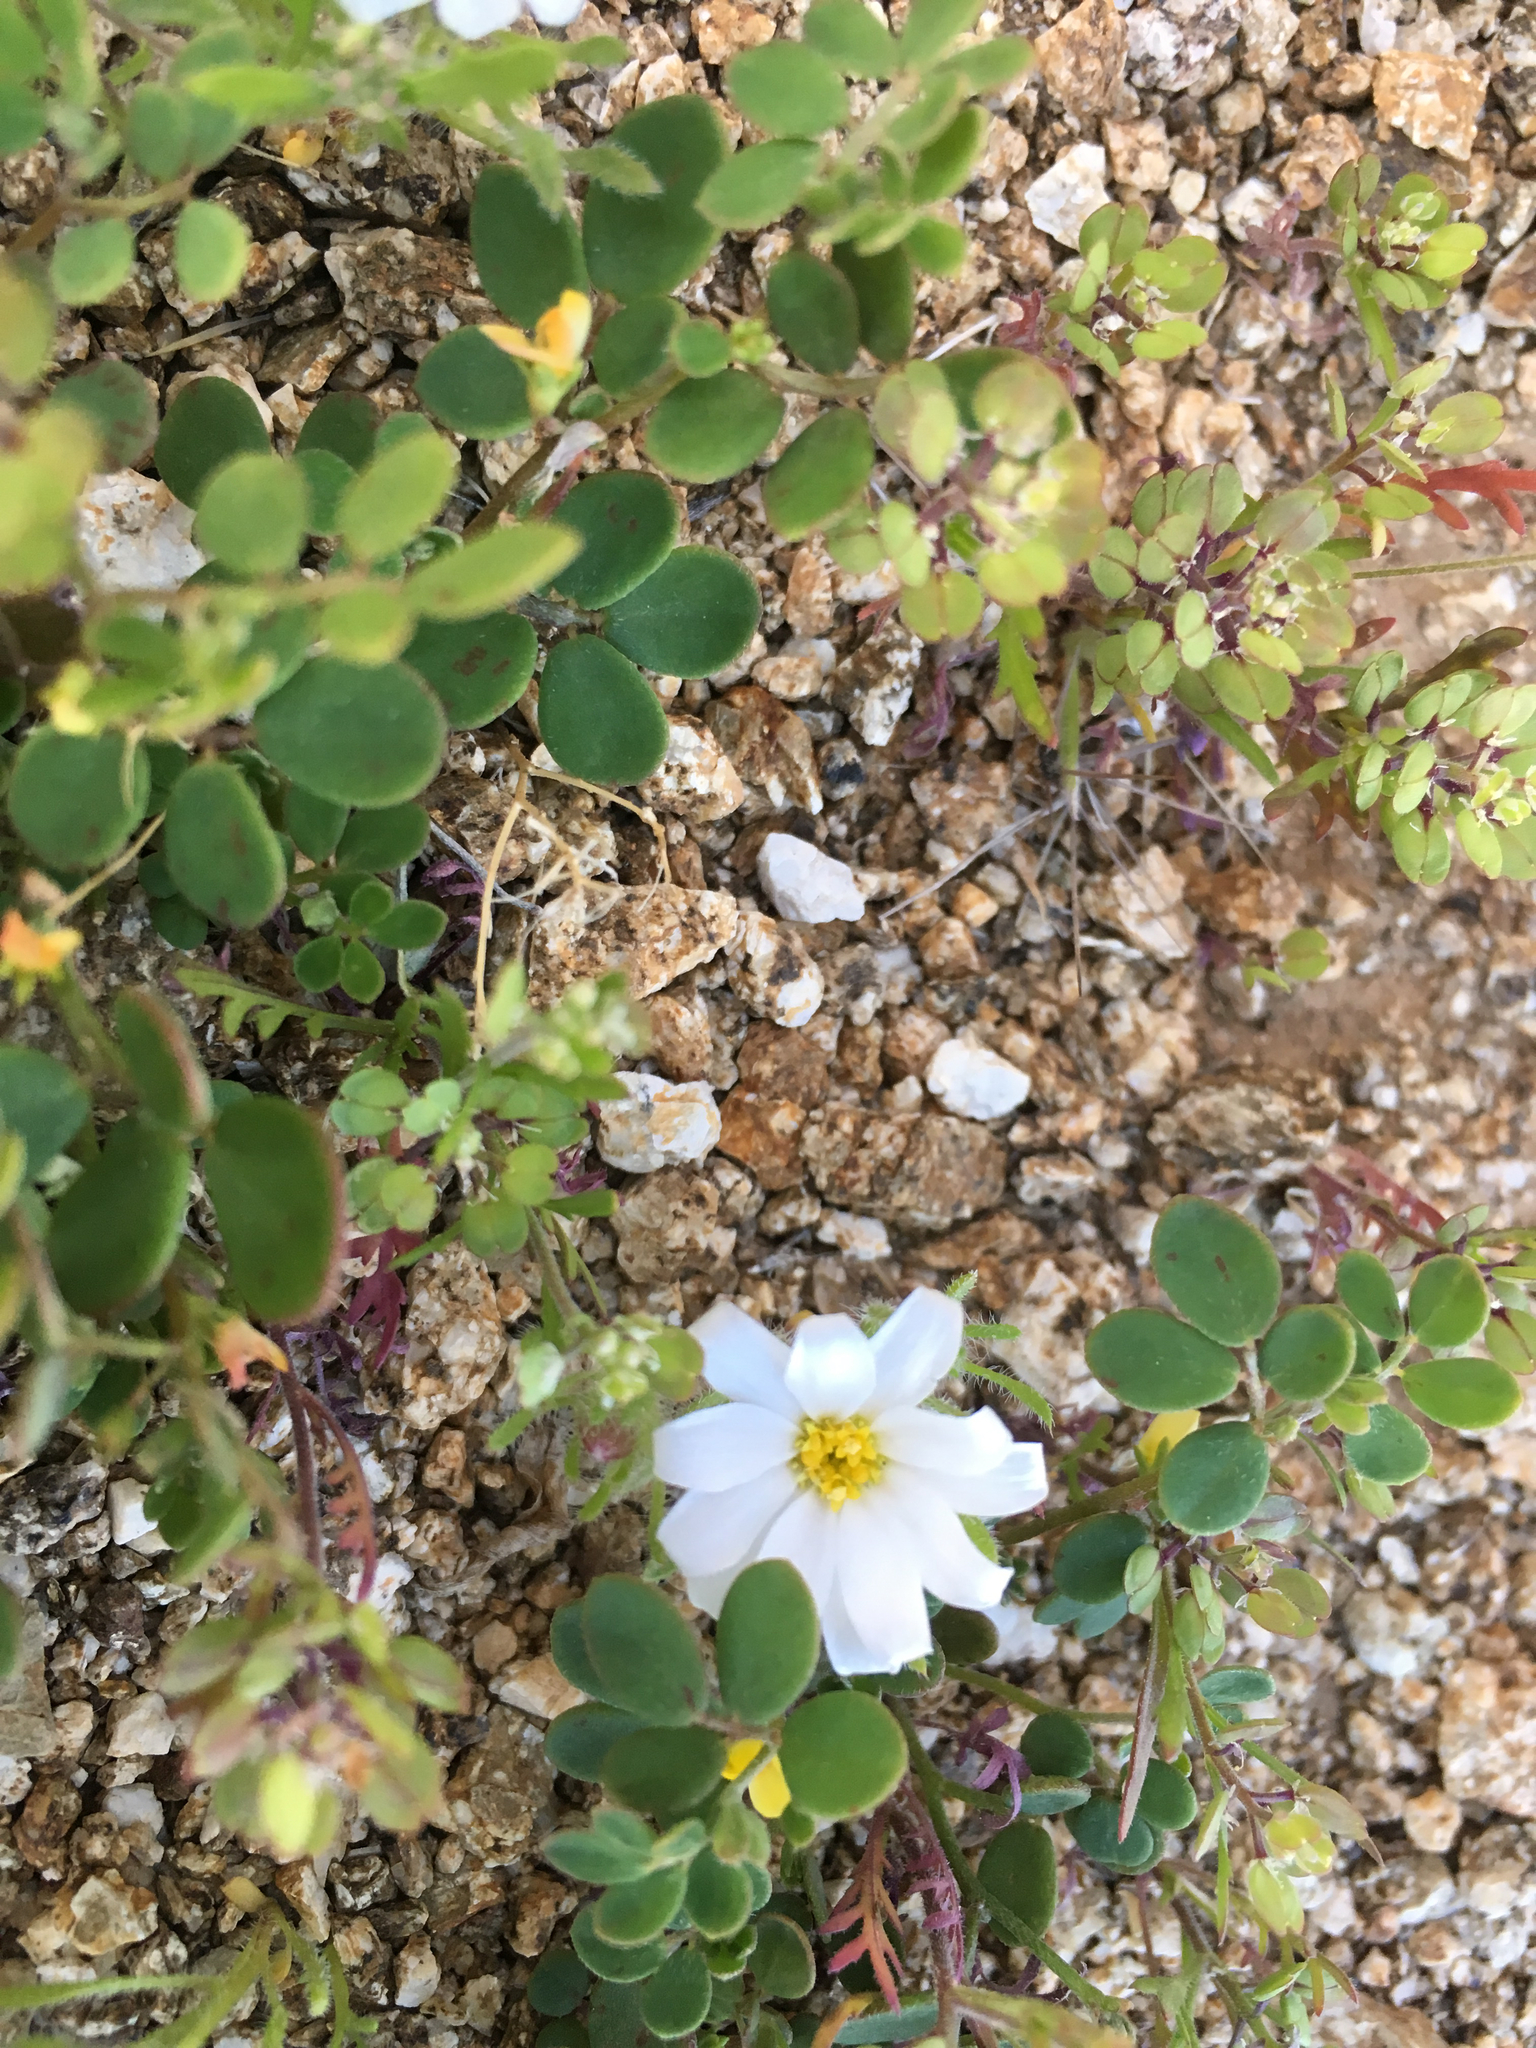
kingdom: Plantae
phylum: Tracheophyta
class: Magnoliopsida
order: Asterales
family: Asteraceae
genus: Monoptilon
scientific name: Monoptilon bellioides
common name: Bristly desertstar
